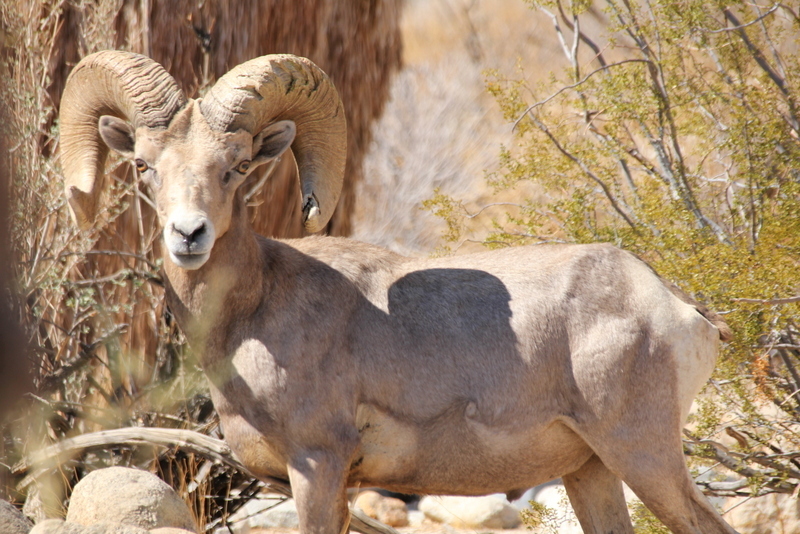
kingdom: Animalia
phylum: Chordata
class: Mammalia
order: Artiodactyla
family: Bovidae
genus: Ovis
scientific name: Ovis canadensis
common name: Bighorn sheep
